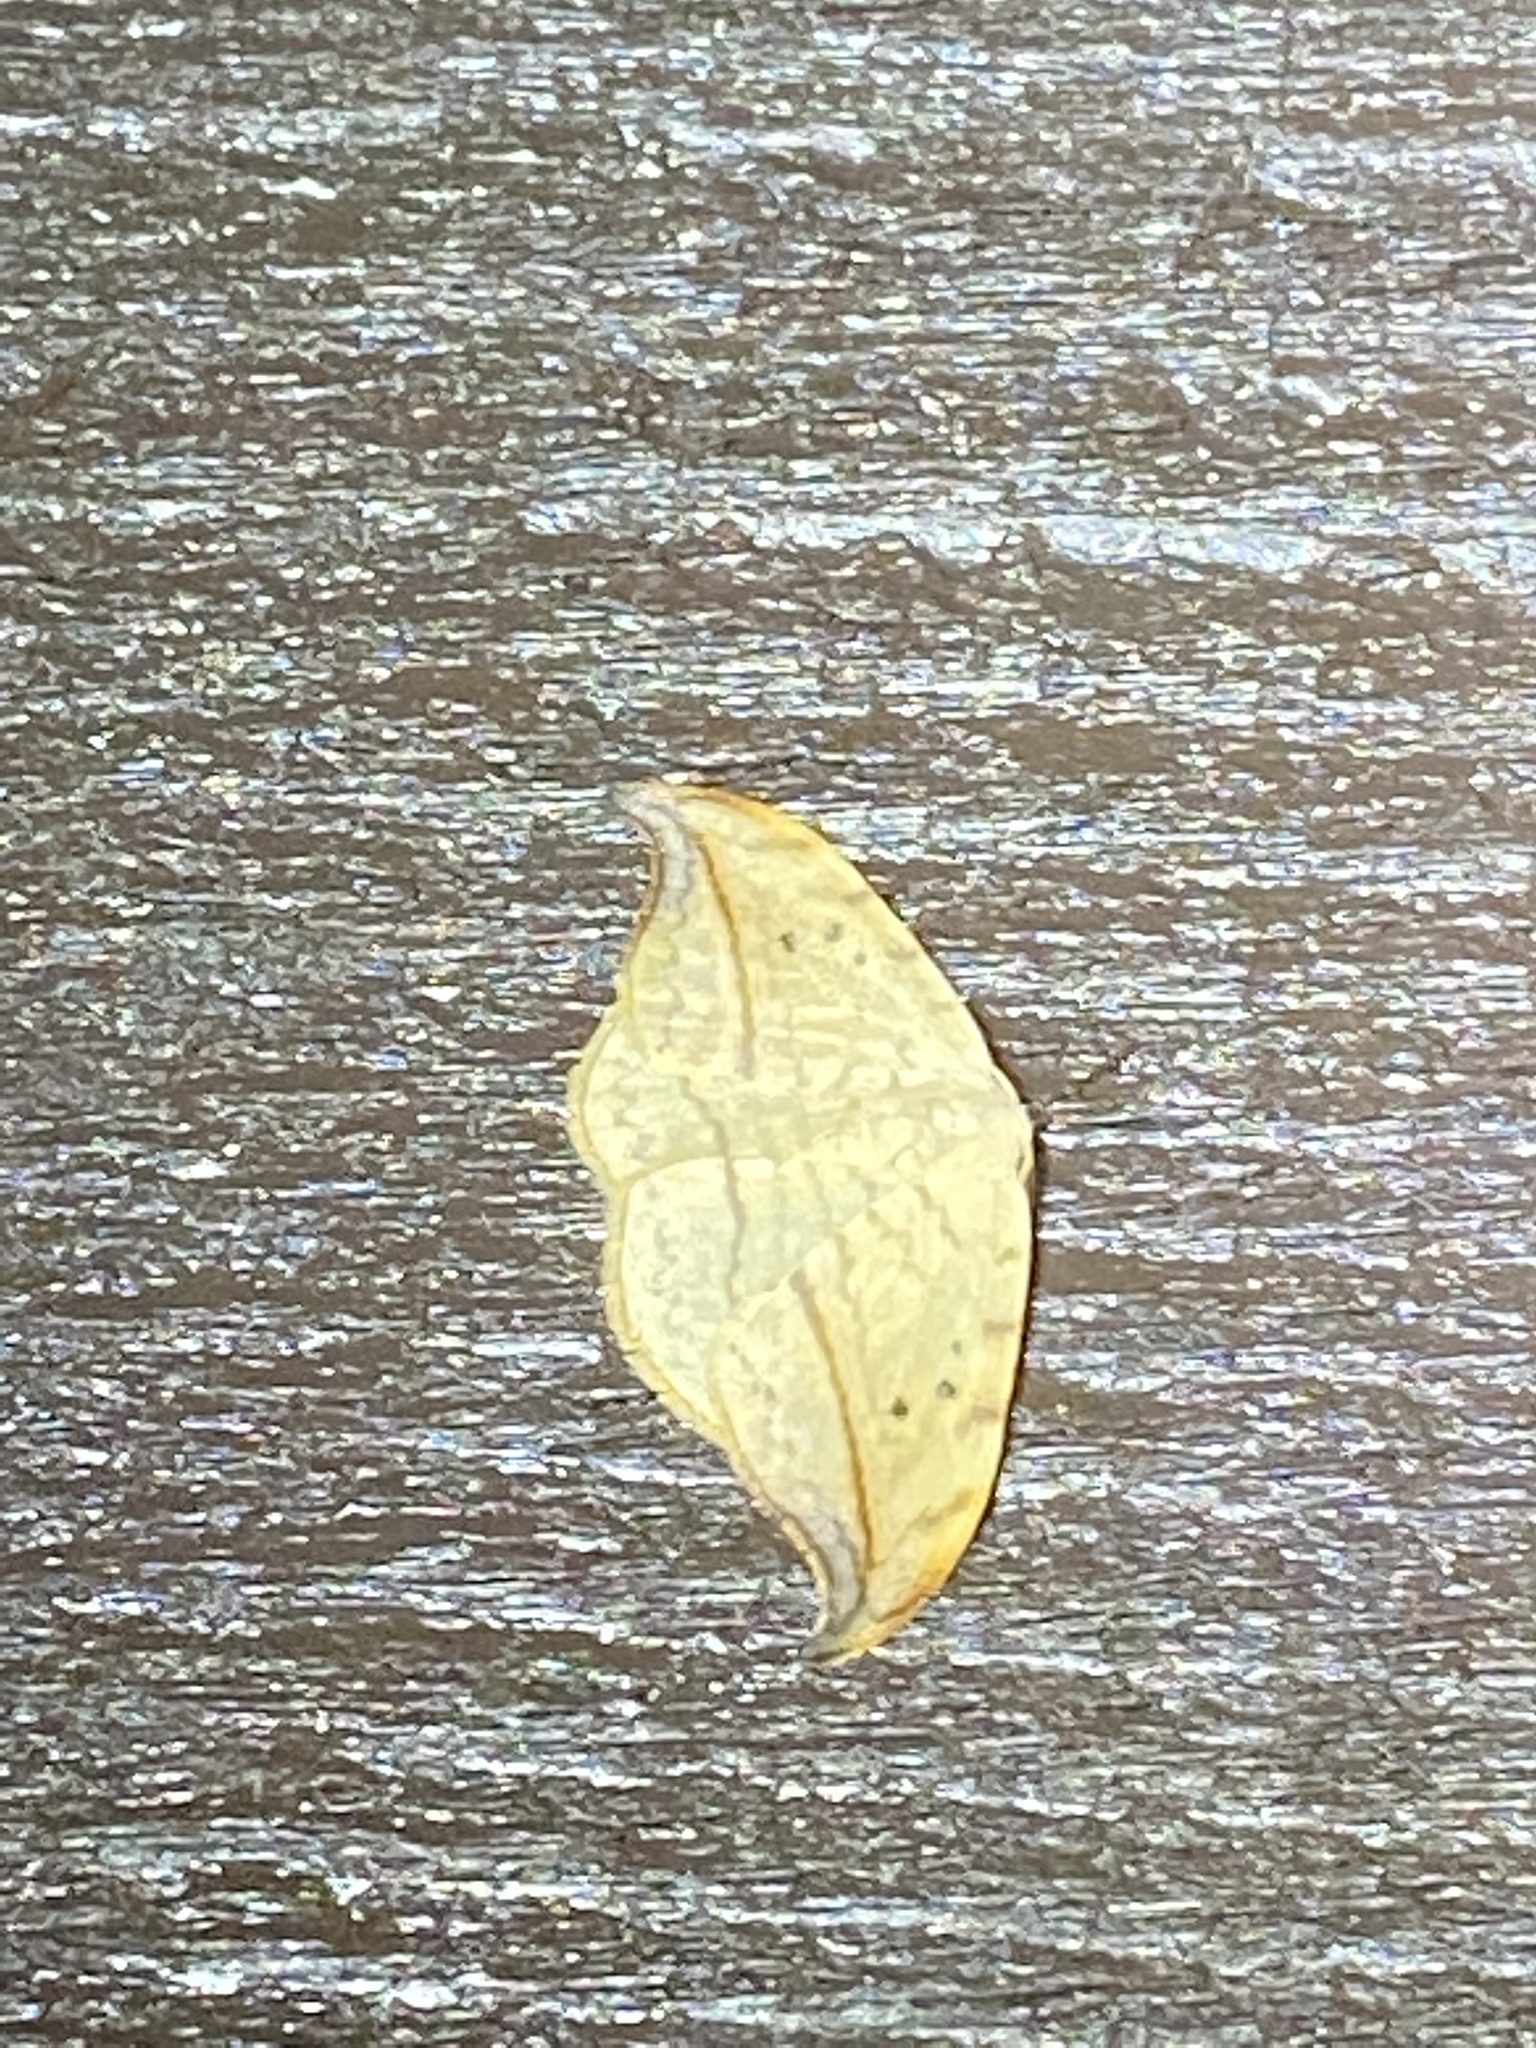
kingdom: Animalia
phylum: Arthropoda
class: Insecta
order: Lepidoptera
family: Drepanidae
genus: Drepana
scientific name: Drepana arcuata
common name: Arched hooktip moth
